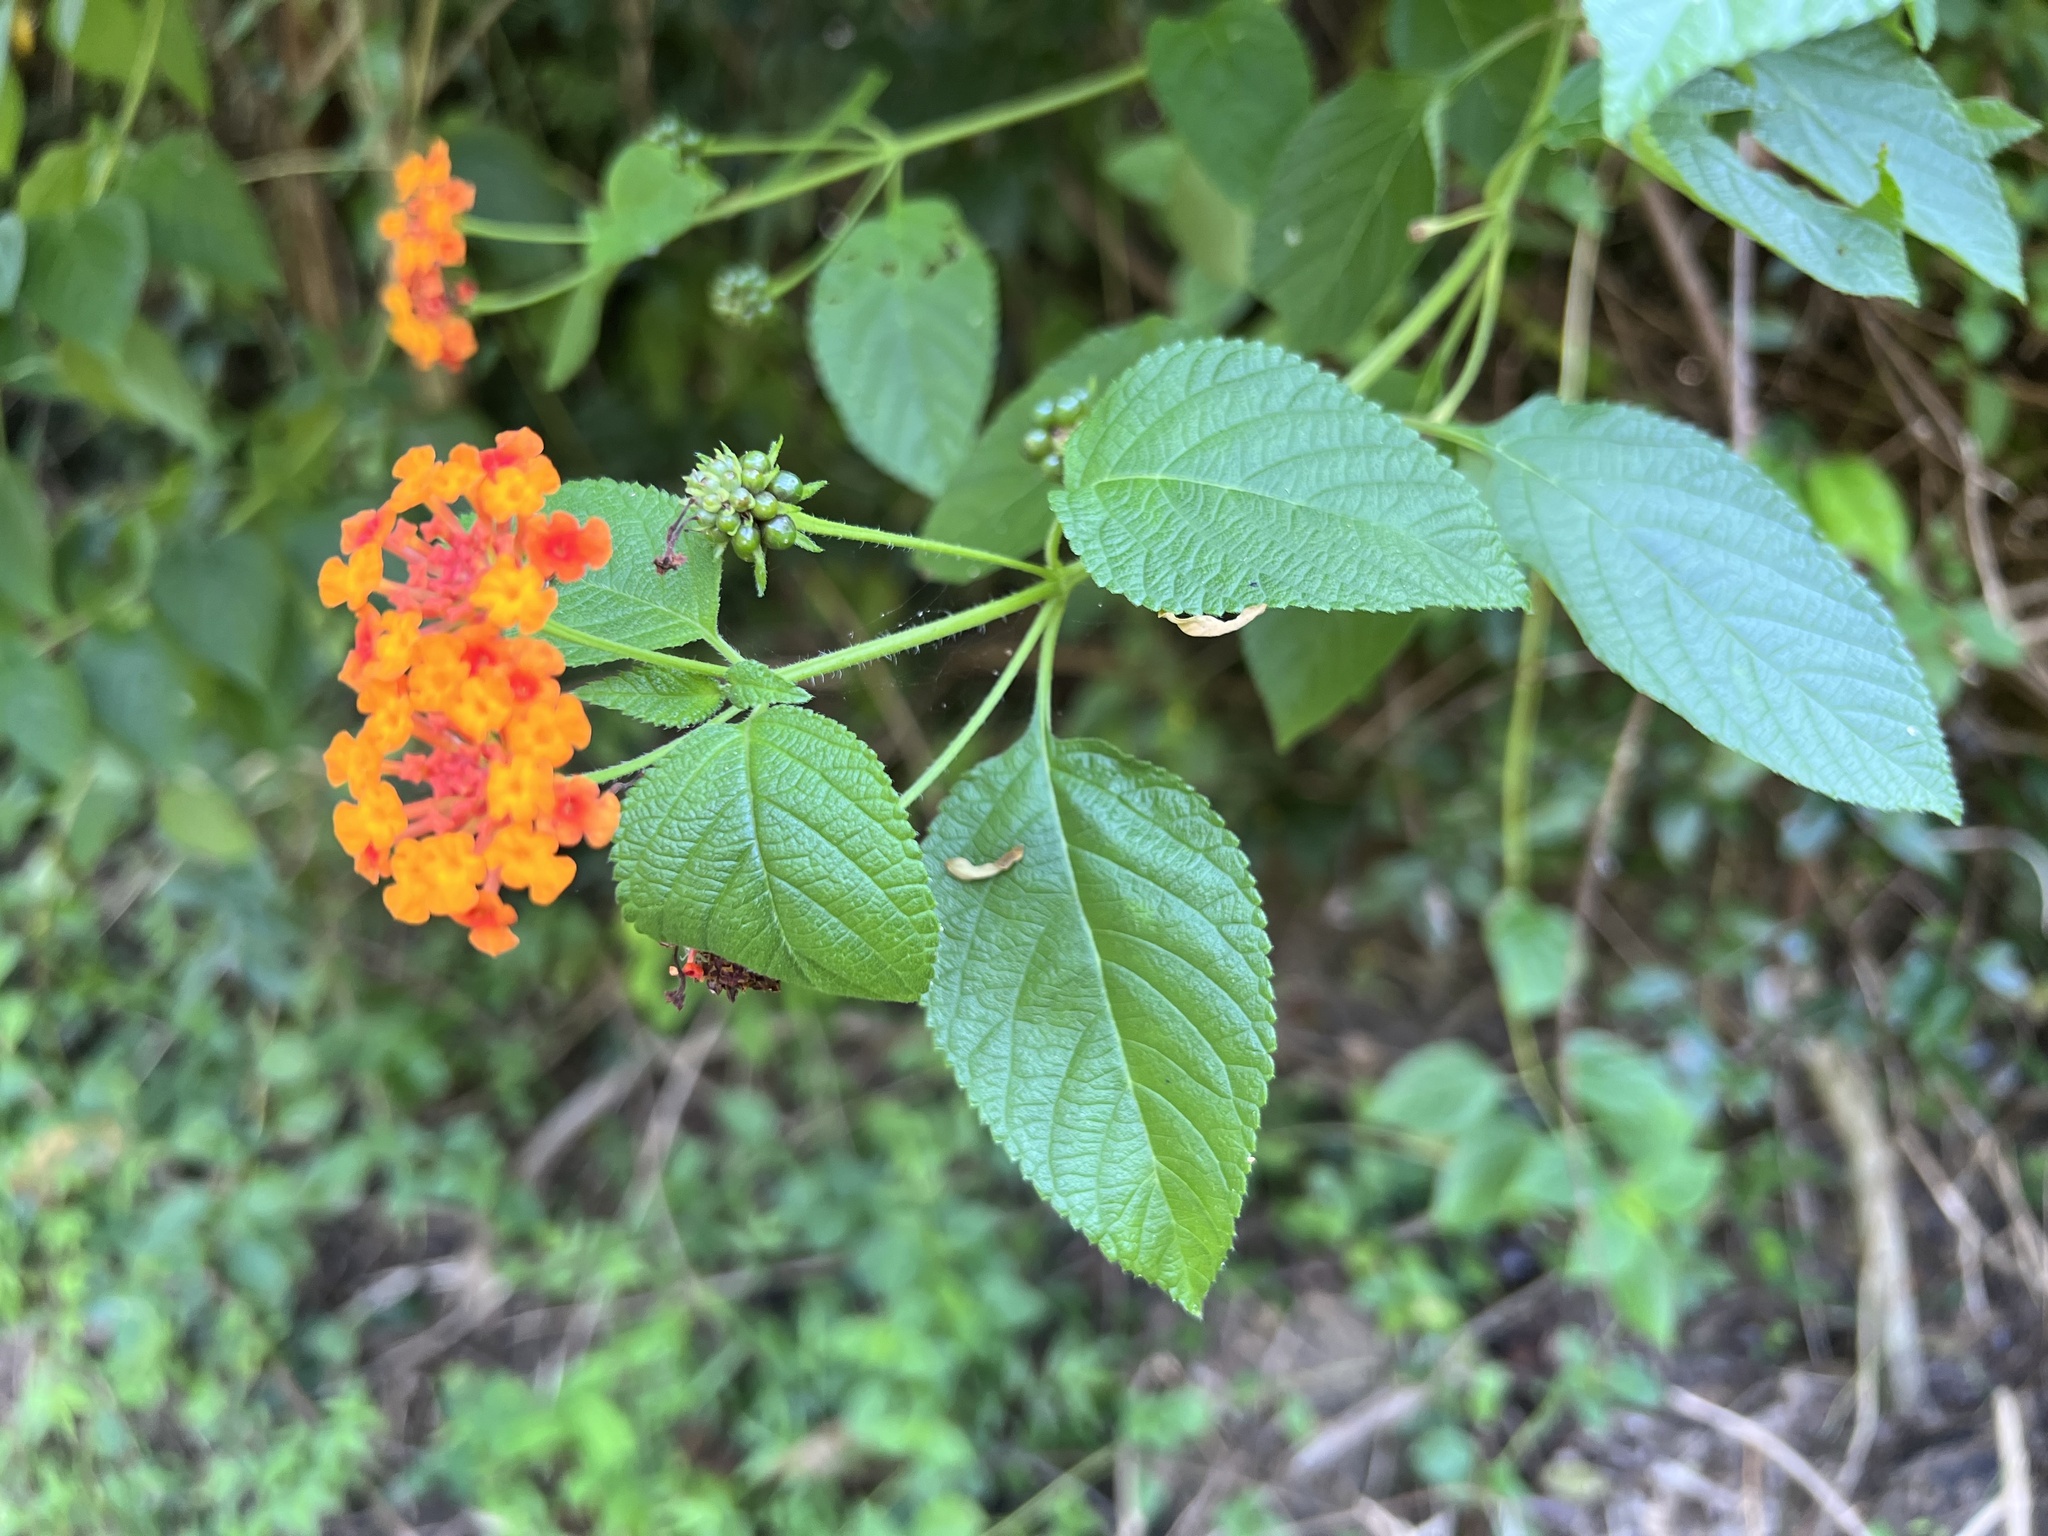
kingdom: Plantae
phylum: Tracheophyta
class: Magnoliopsida
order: Lamiales
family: Verbenaceae
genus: Lantana
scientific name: Lantana camara
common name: Lantana
